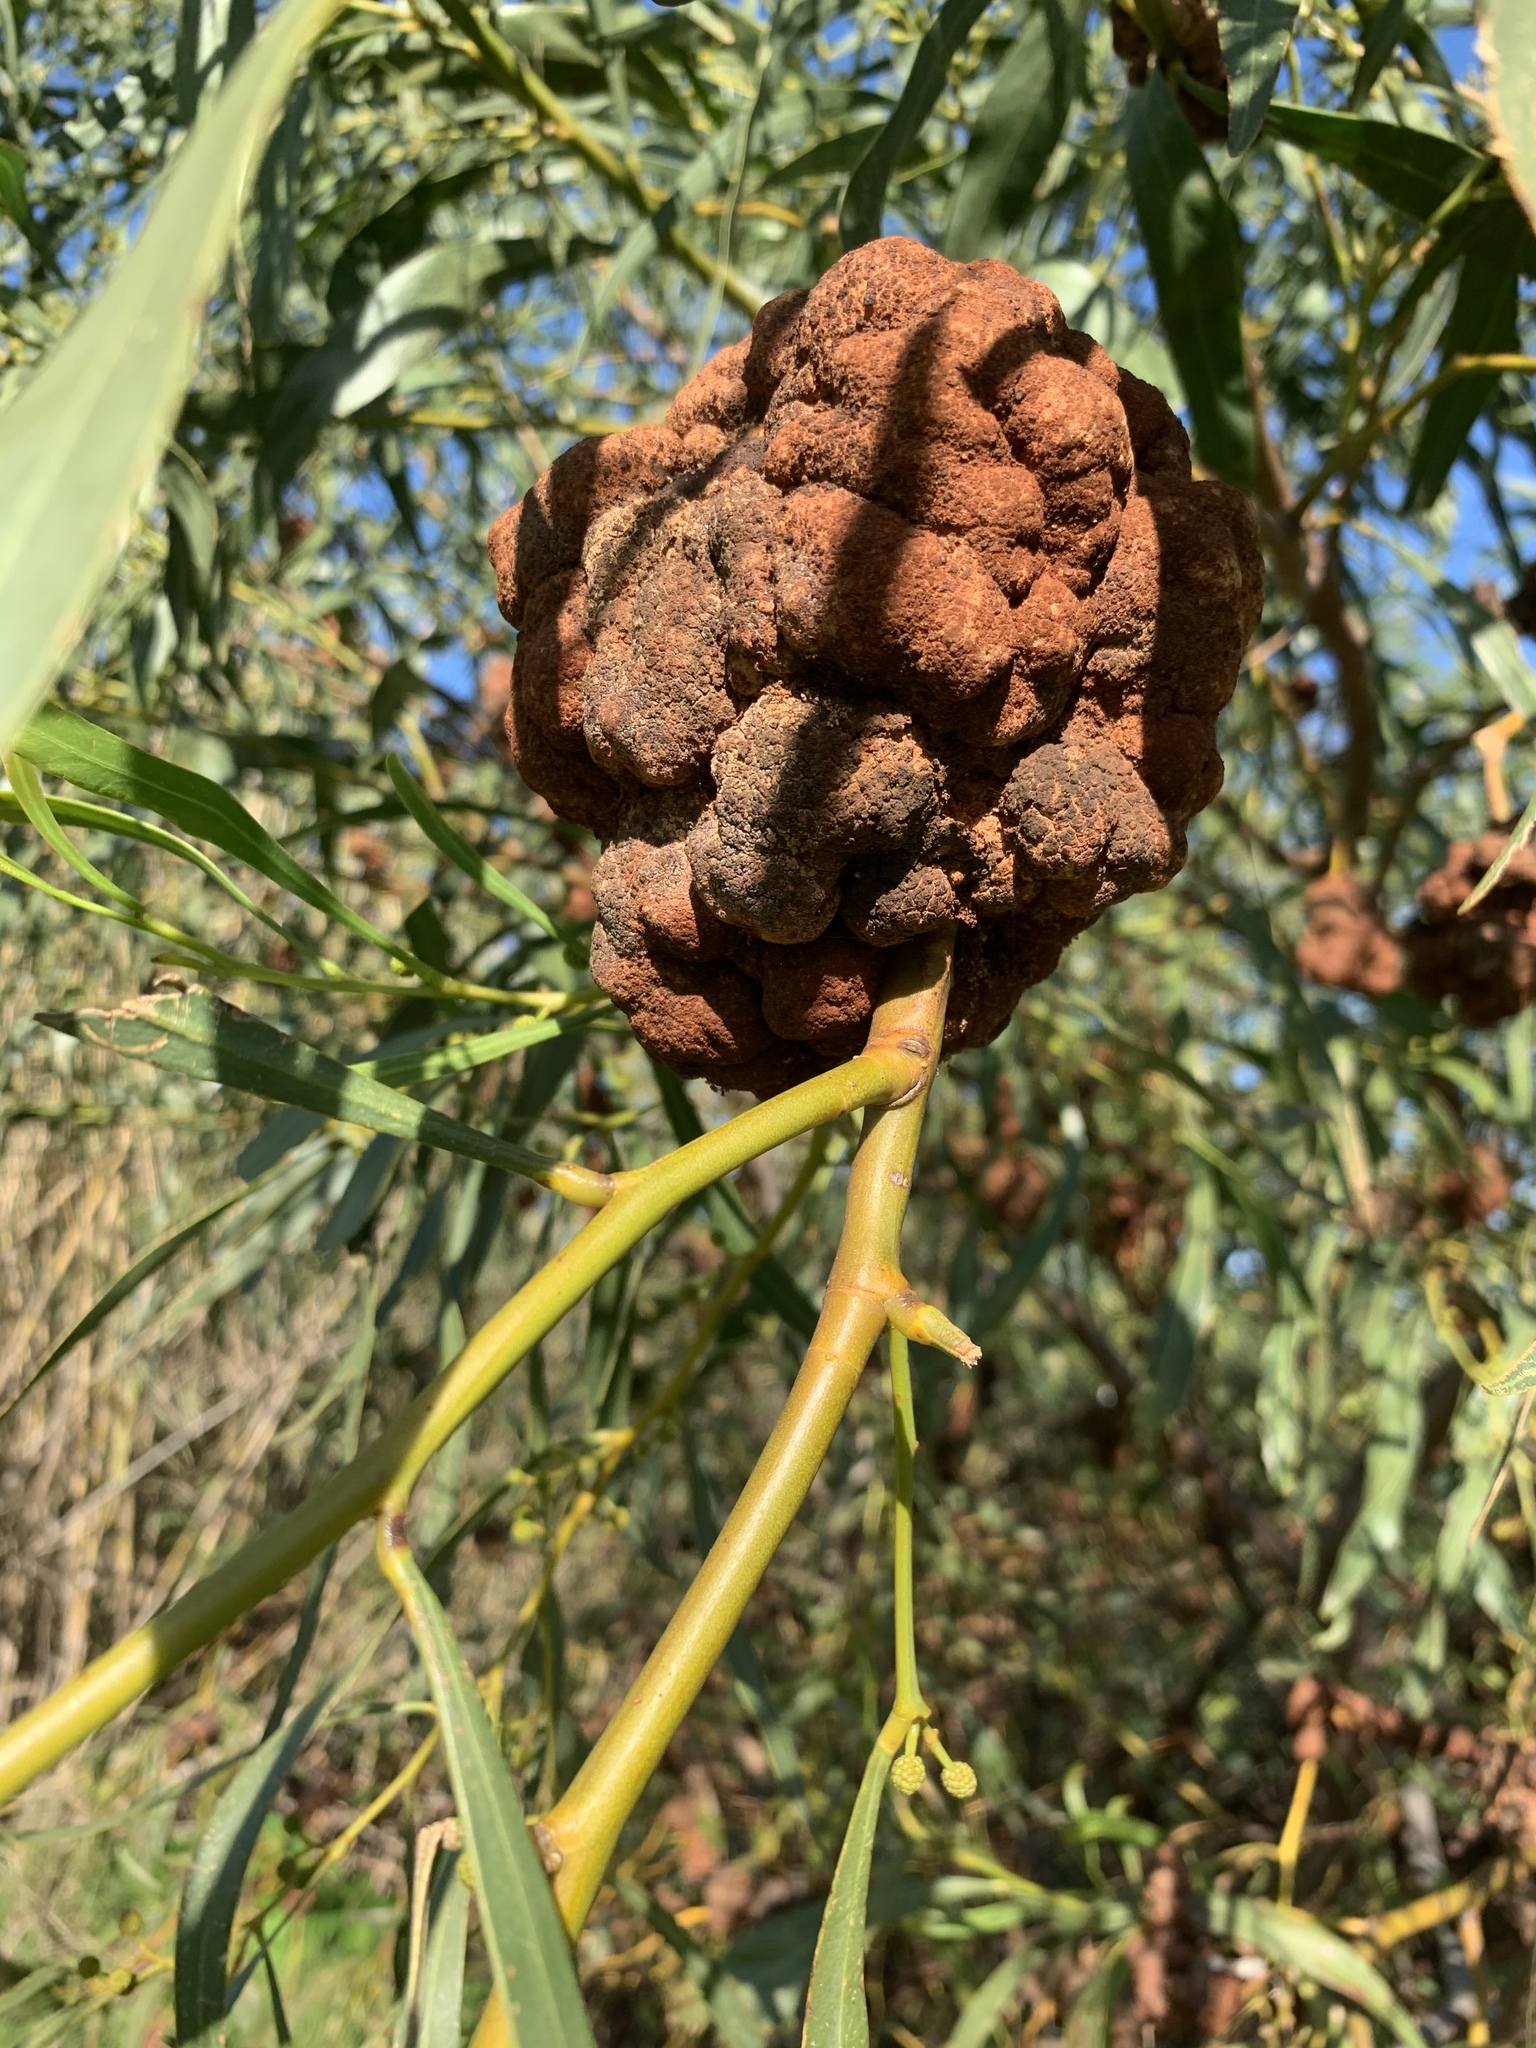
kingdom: Plantae
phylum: Tracheophyta
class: Magnoliopsida
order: Fabales
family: Fabaceae
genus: Acacia
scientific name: Acacia saligna
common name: Orange wattle
